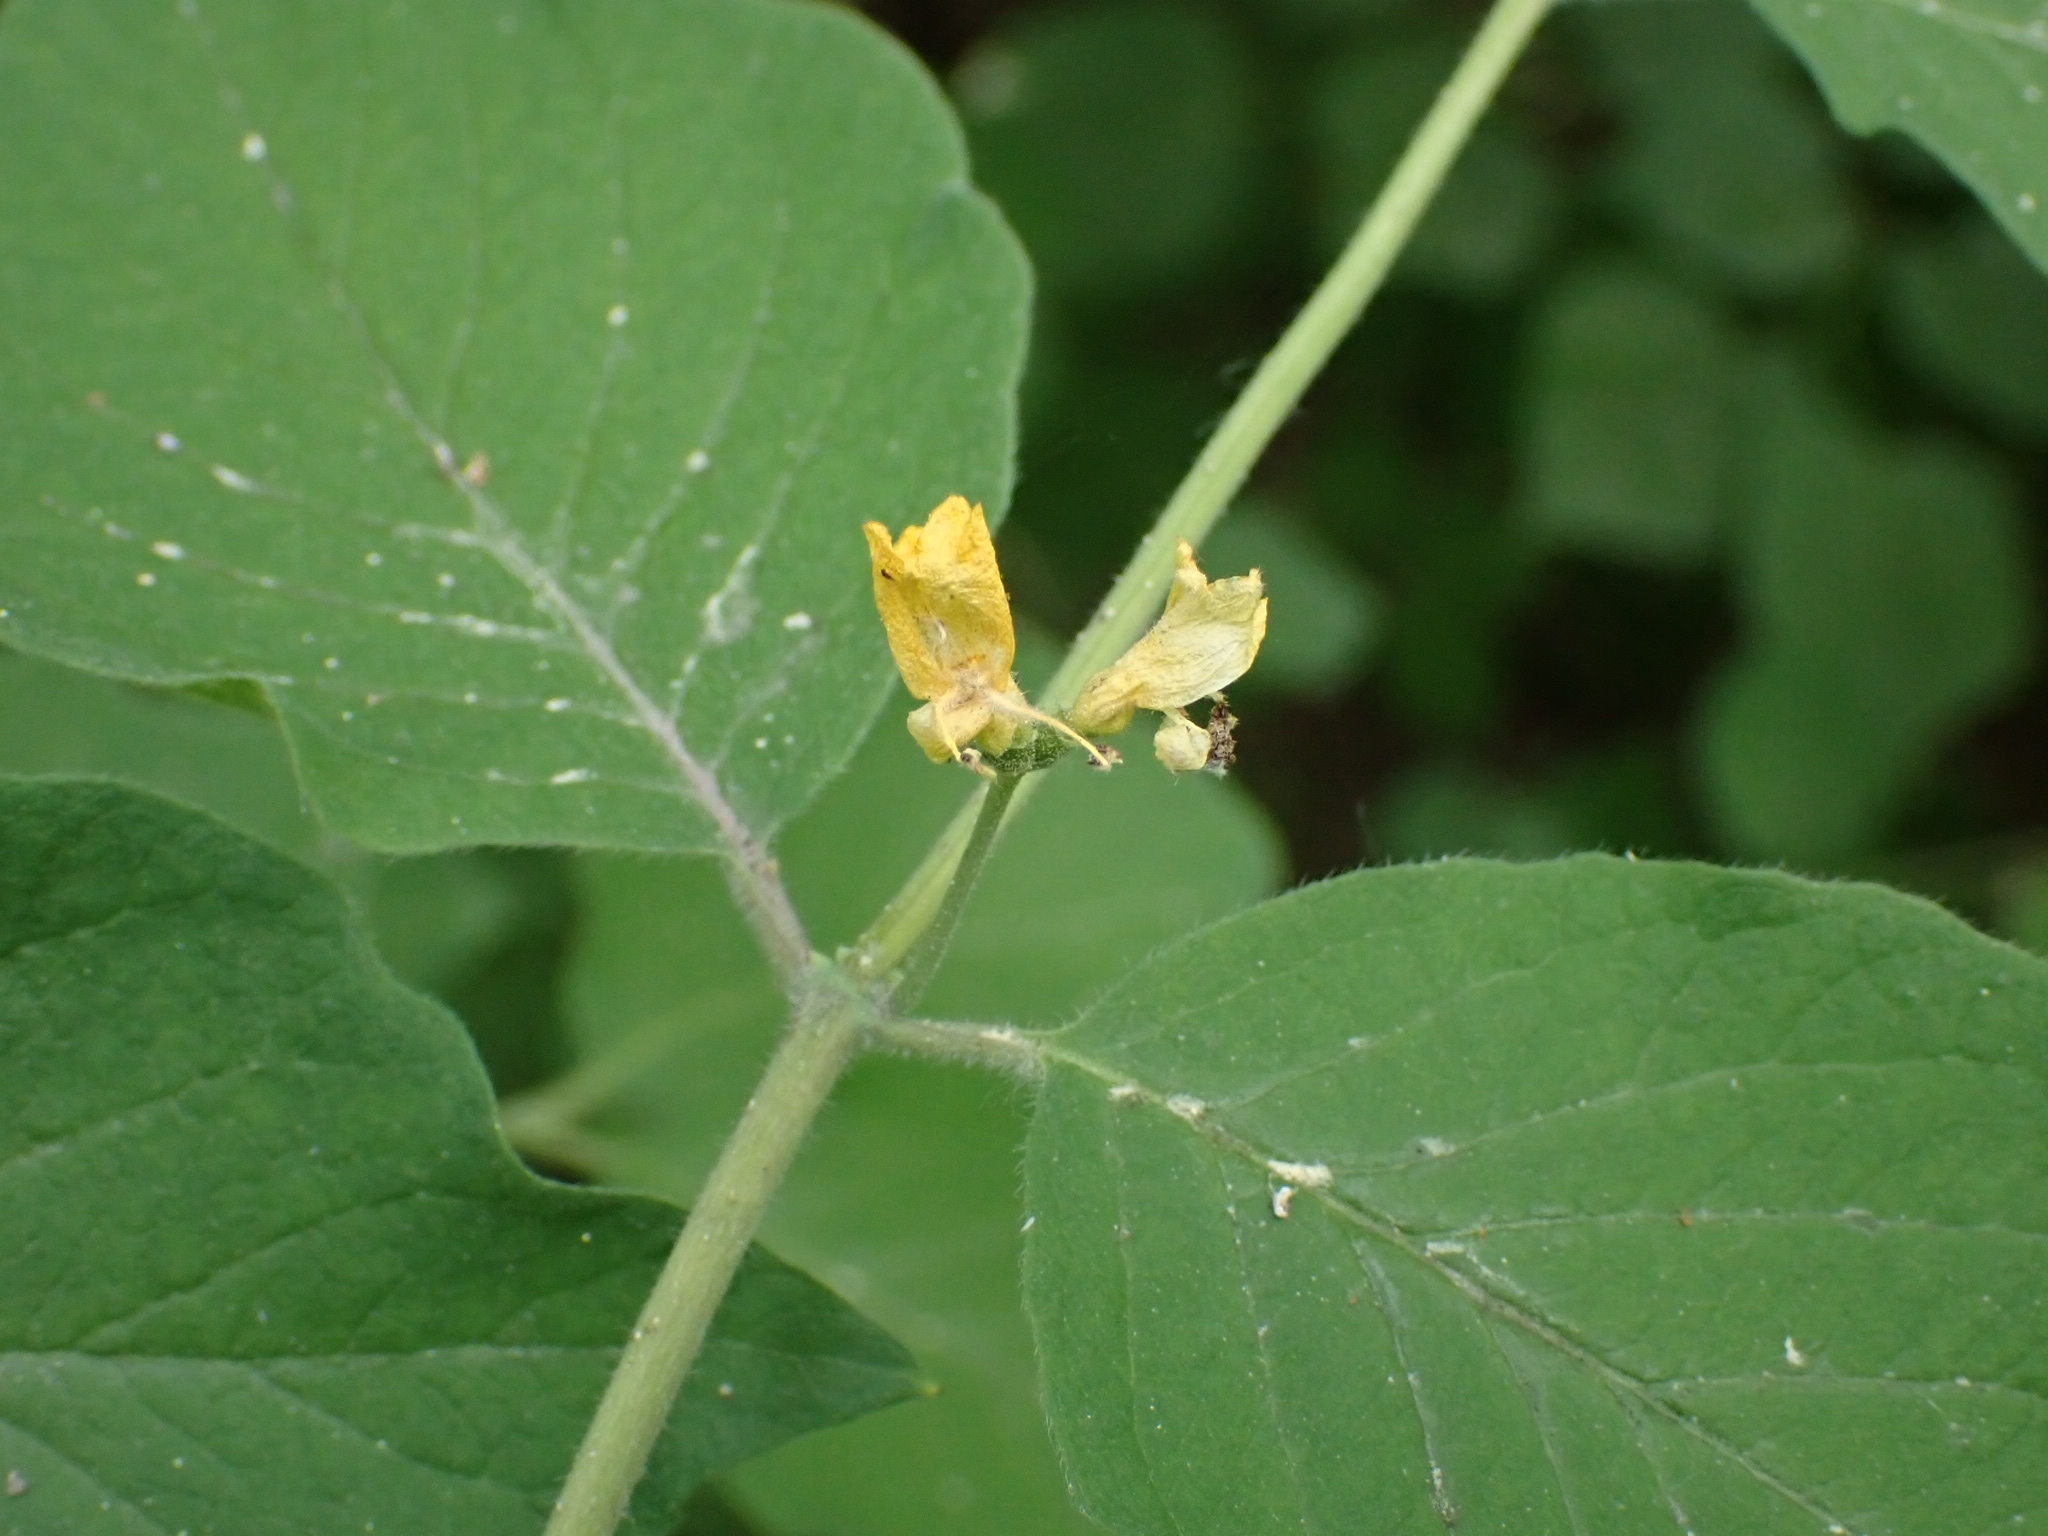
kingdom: Plantae
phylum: Tracheophyta
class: Magnoliopsida
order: Dipsacales
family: Caprifoliaceae
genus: Lonicera
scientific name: Lonicera xylosteum
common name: Fly honeysuckle
